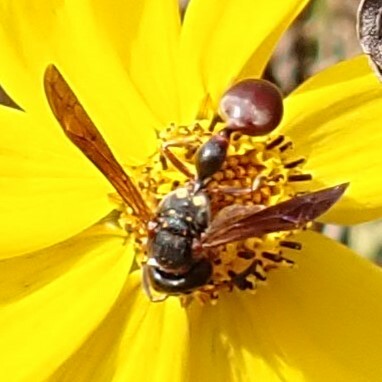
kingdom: Animalia
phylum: Arthropoda
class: Insecta
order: Hymenoptera
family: Eumenidae
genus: Zethus
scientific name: Zethus slossonae
